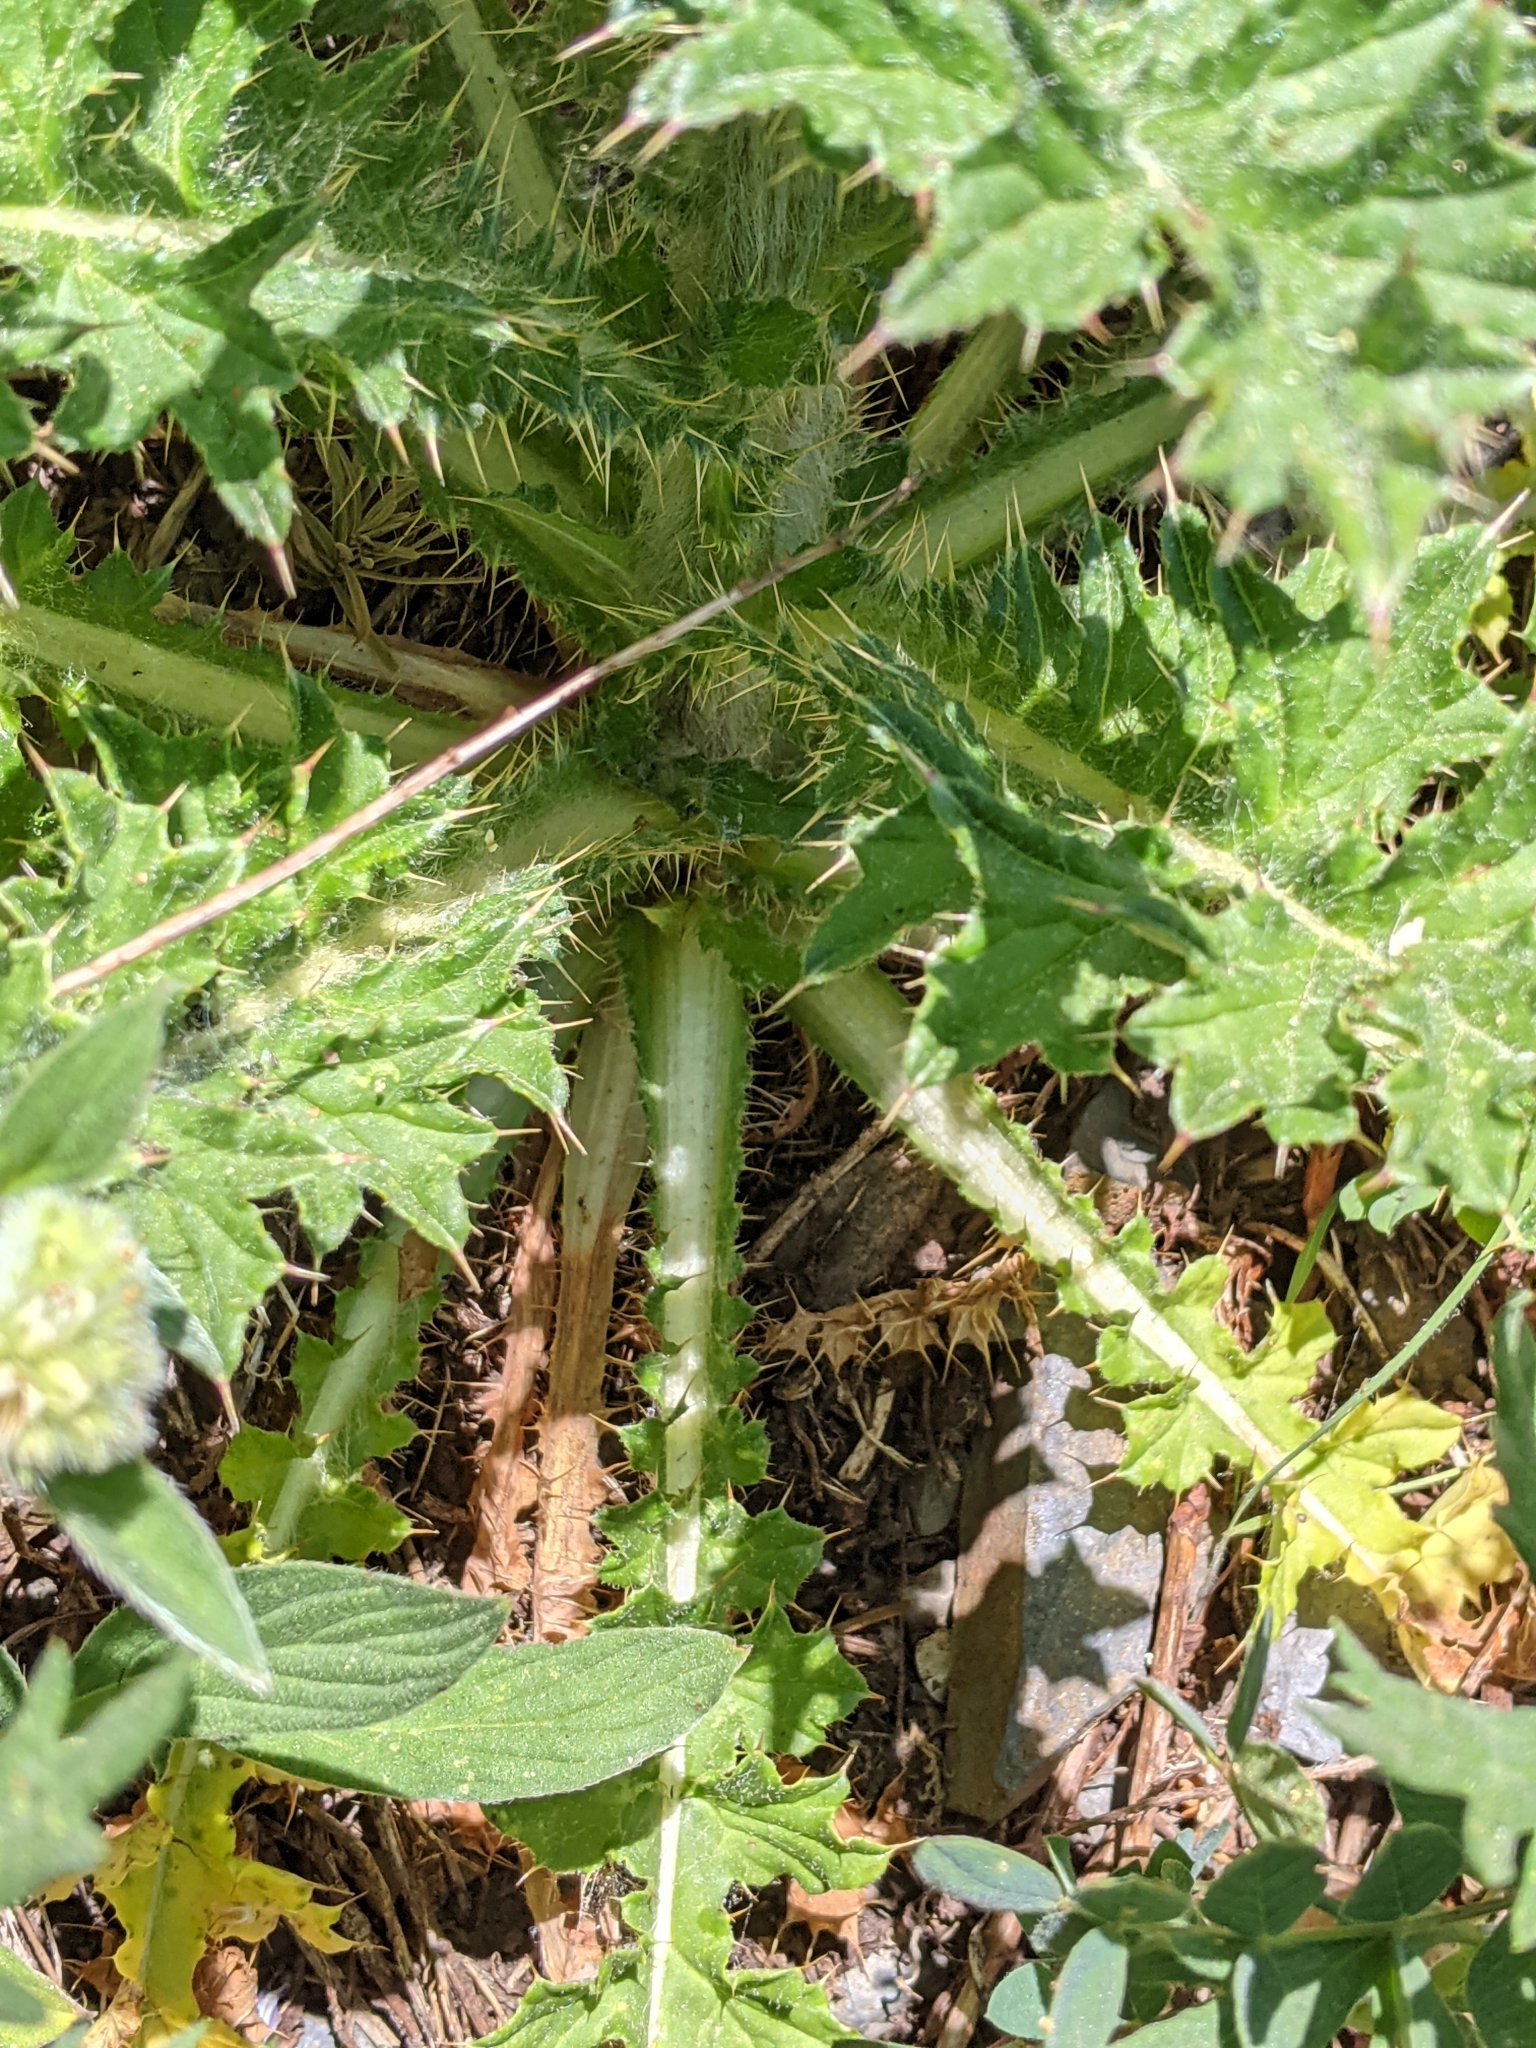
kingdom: Plantae
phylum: Tracheophyta
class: Magnoliopsida
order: Asterales
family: Asteraceae
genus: Cirsium
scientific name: Cirsium edule
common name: Indian thistle
